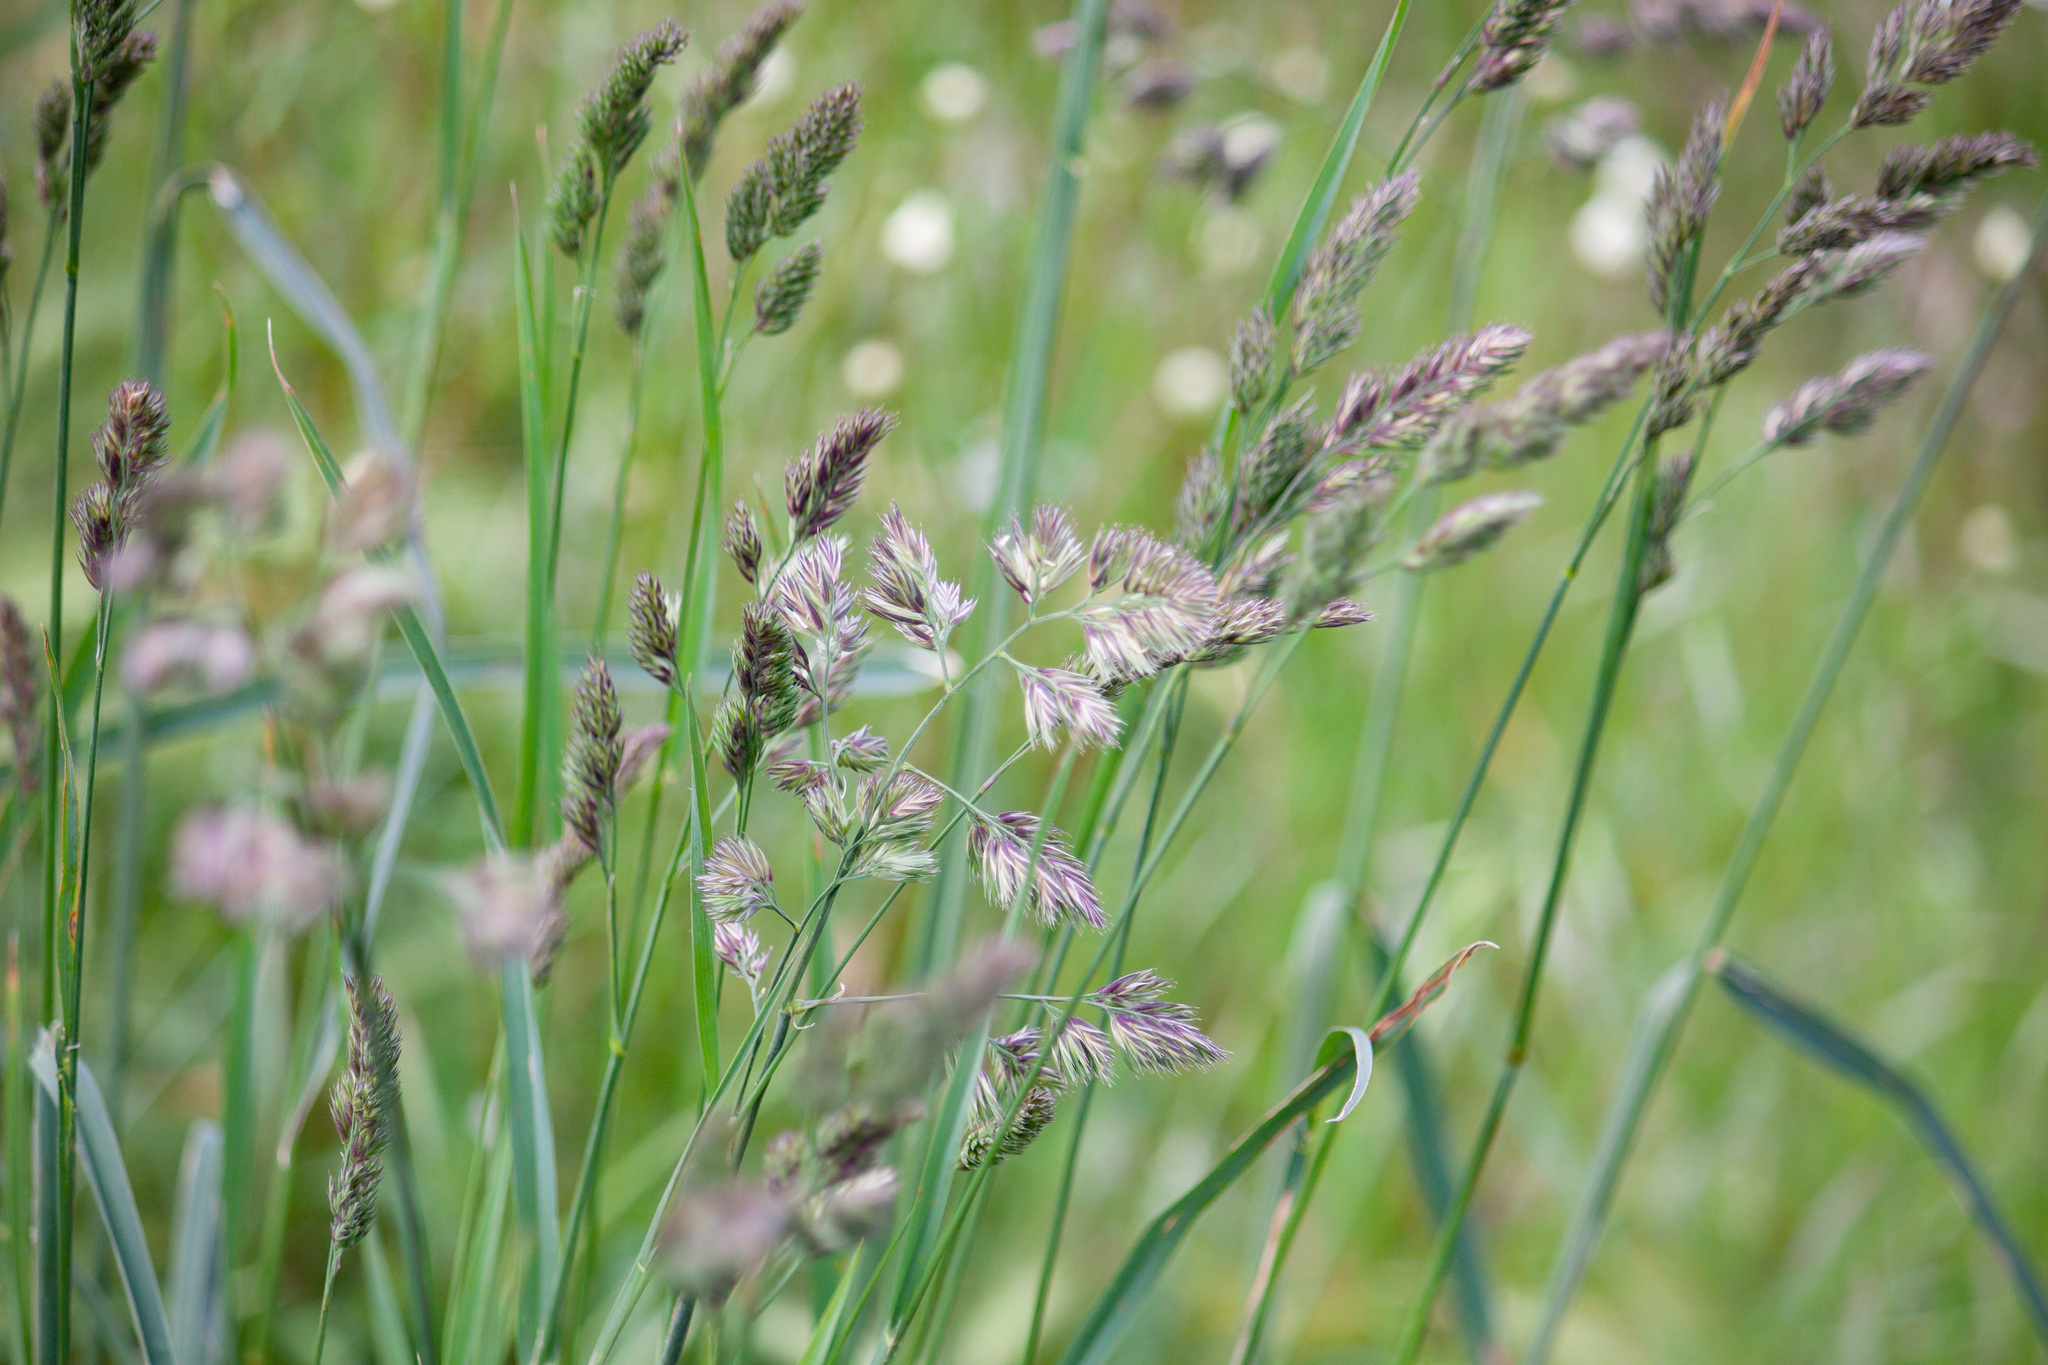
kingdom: Plantae
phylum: Tracheophyta
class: Liliopsida
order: Poales
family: Poaceae
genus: Dactylis
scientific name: Dactylis glomerata
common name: Orchardgrass
